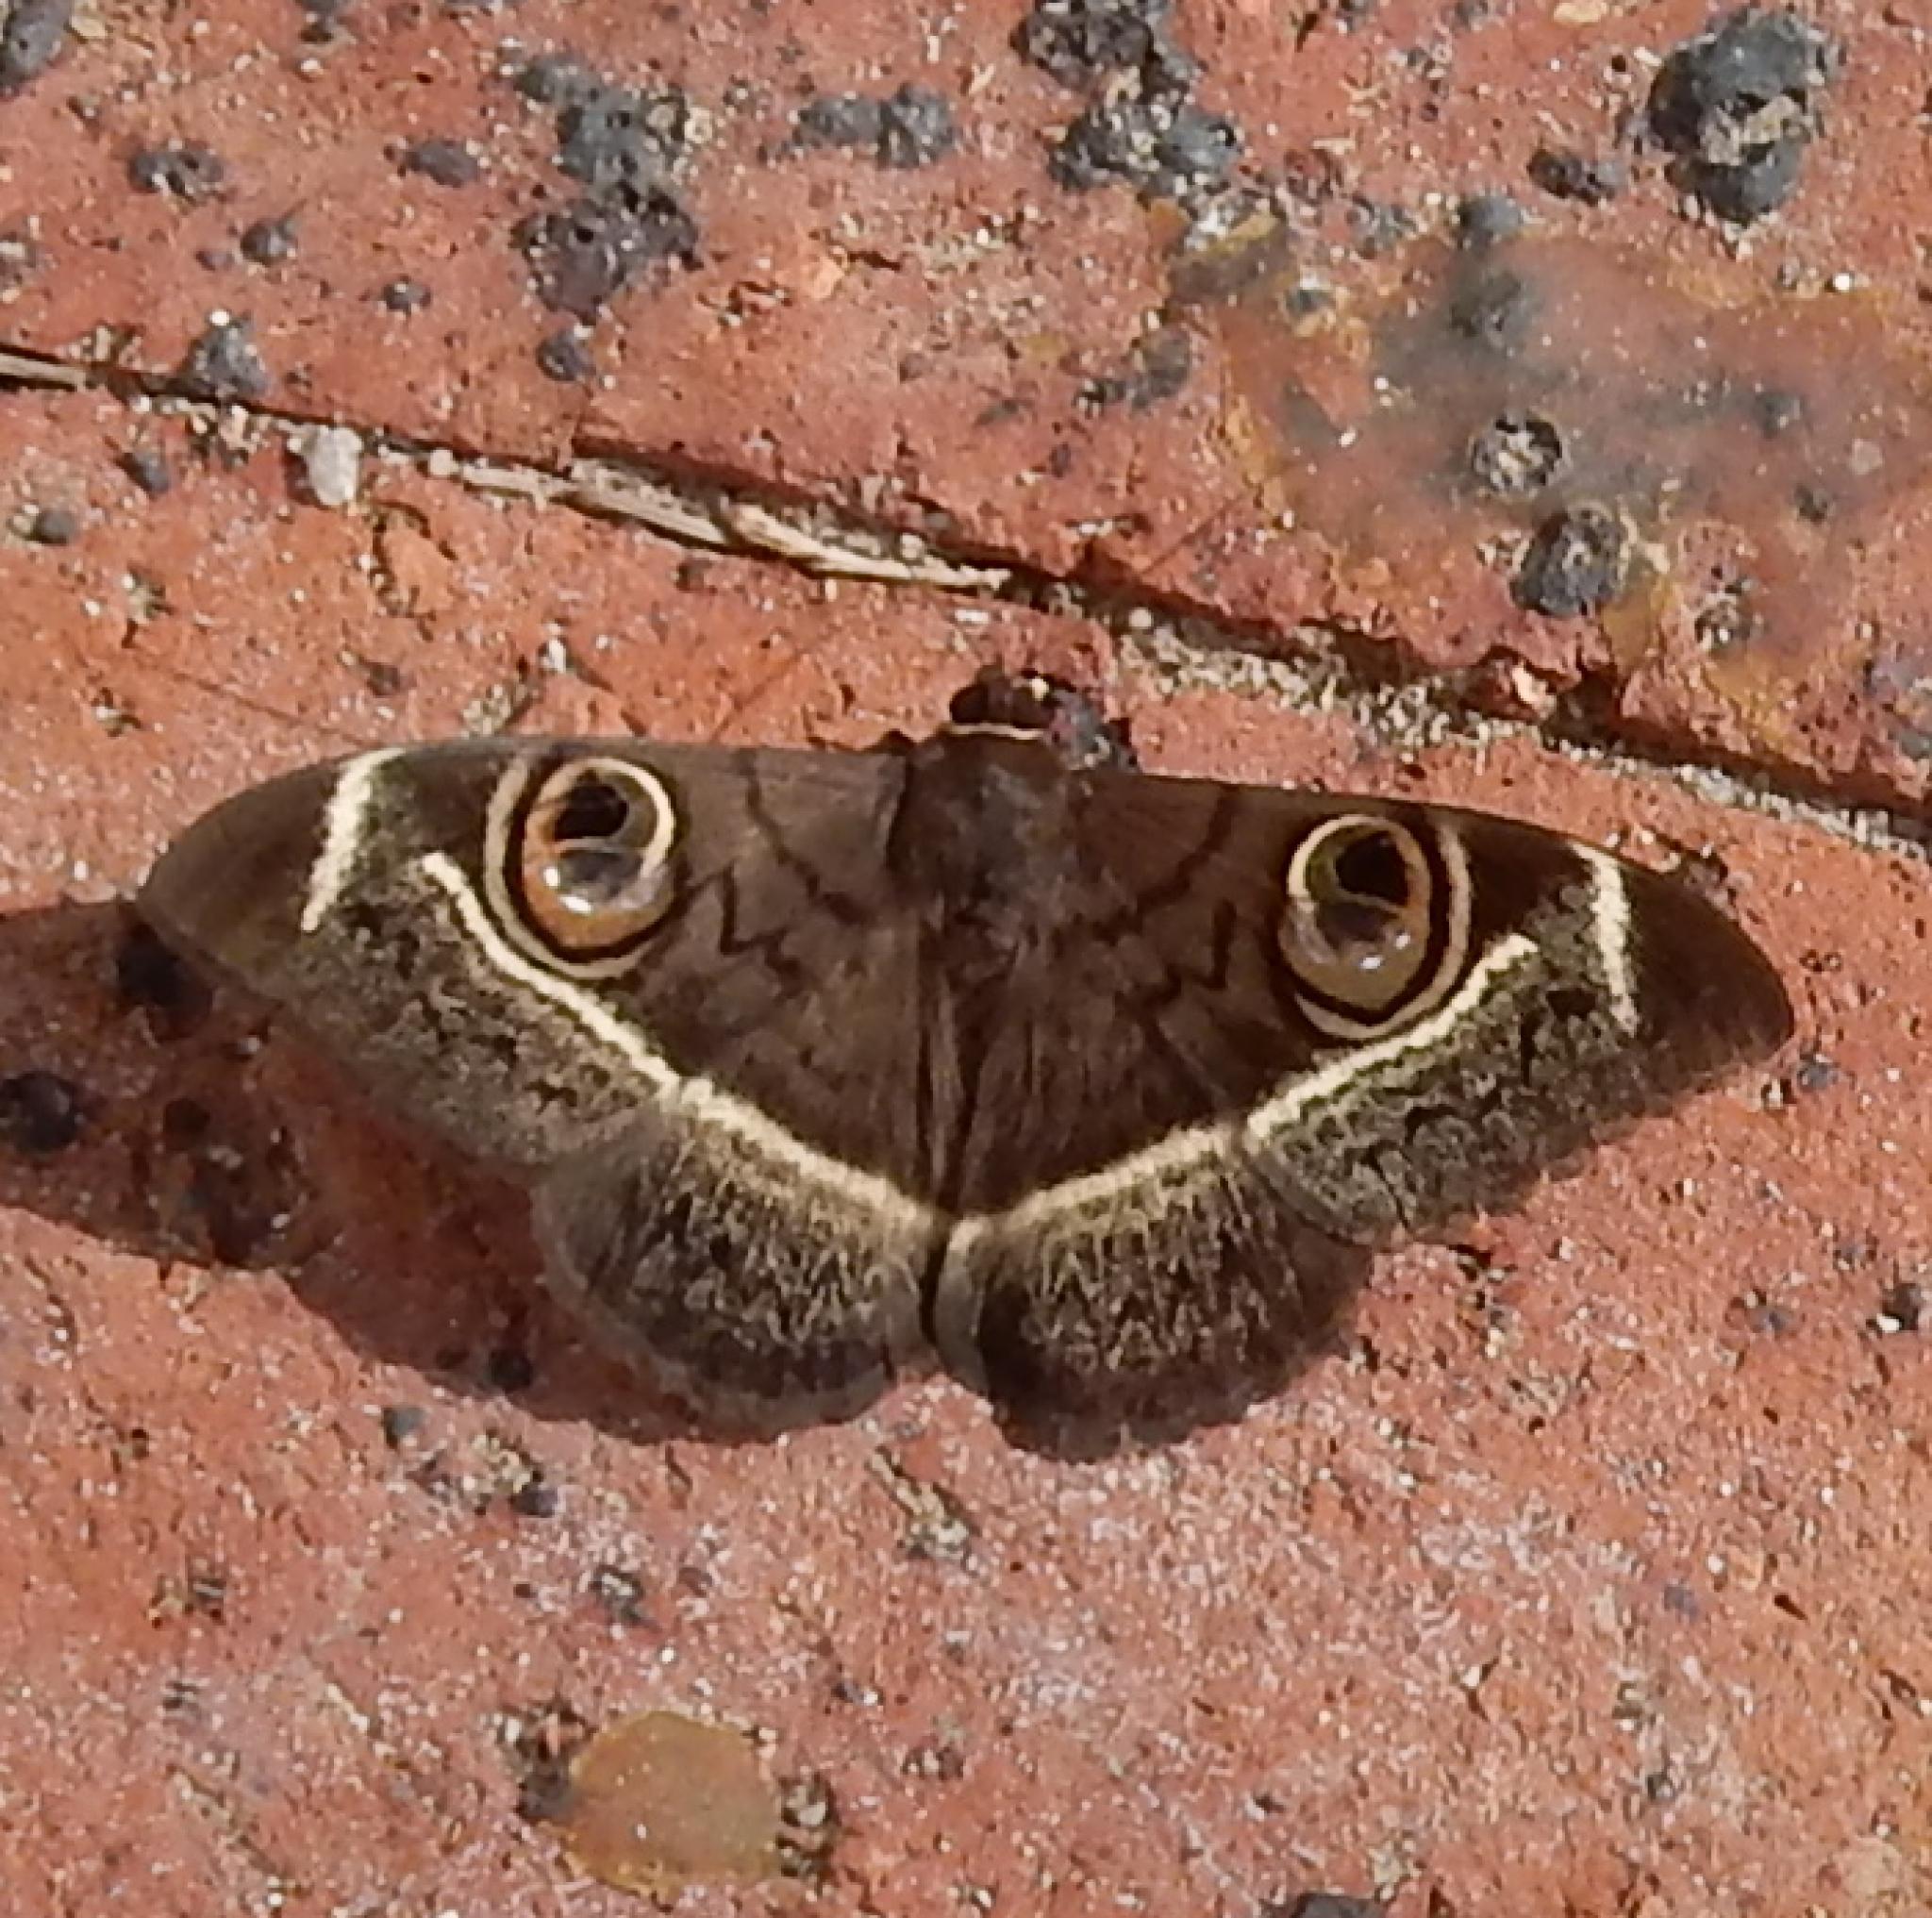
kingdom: Animalia
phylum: Arthropoda
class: Insecta
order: Lepidoptera
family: Erebidae
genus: Cyligramma
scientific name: Cyligramma latona
